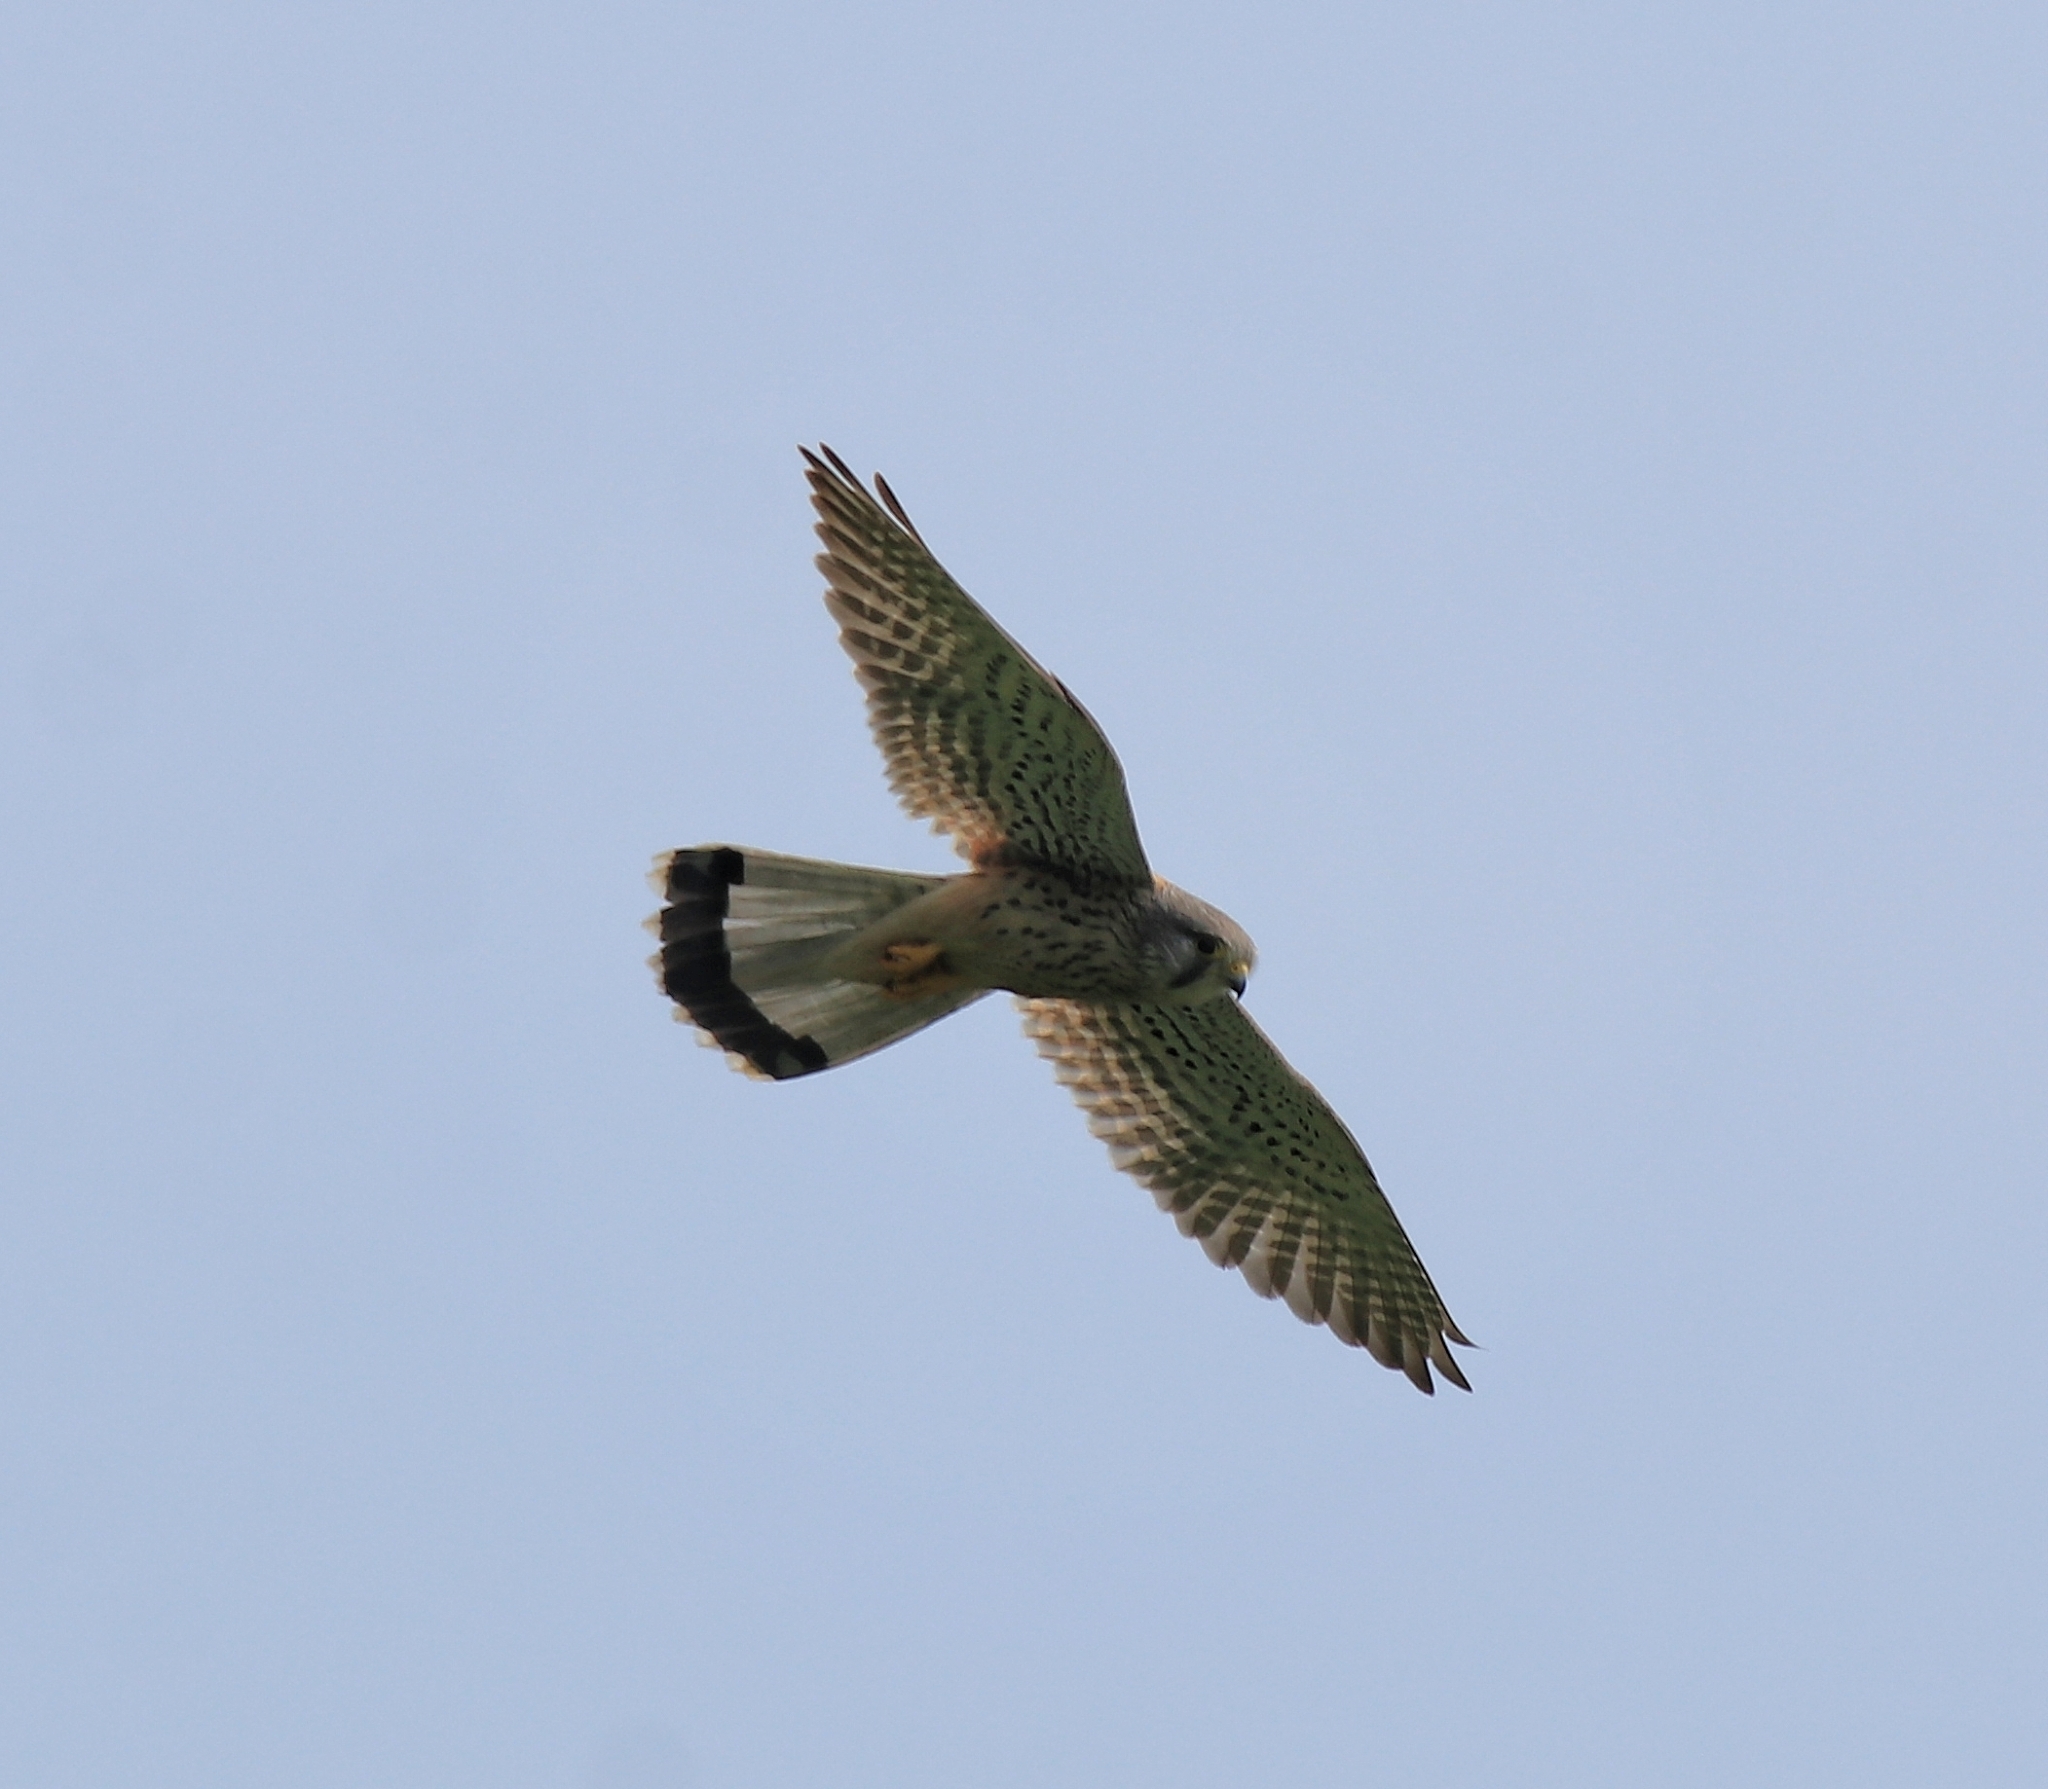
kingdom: Animalia
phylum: Chordata
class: Aves
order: Falconiformes
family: Falconidae
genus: Falco
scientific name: Falco tinnunculus
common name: Common kestrel
